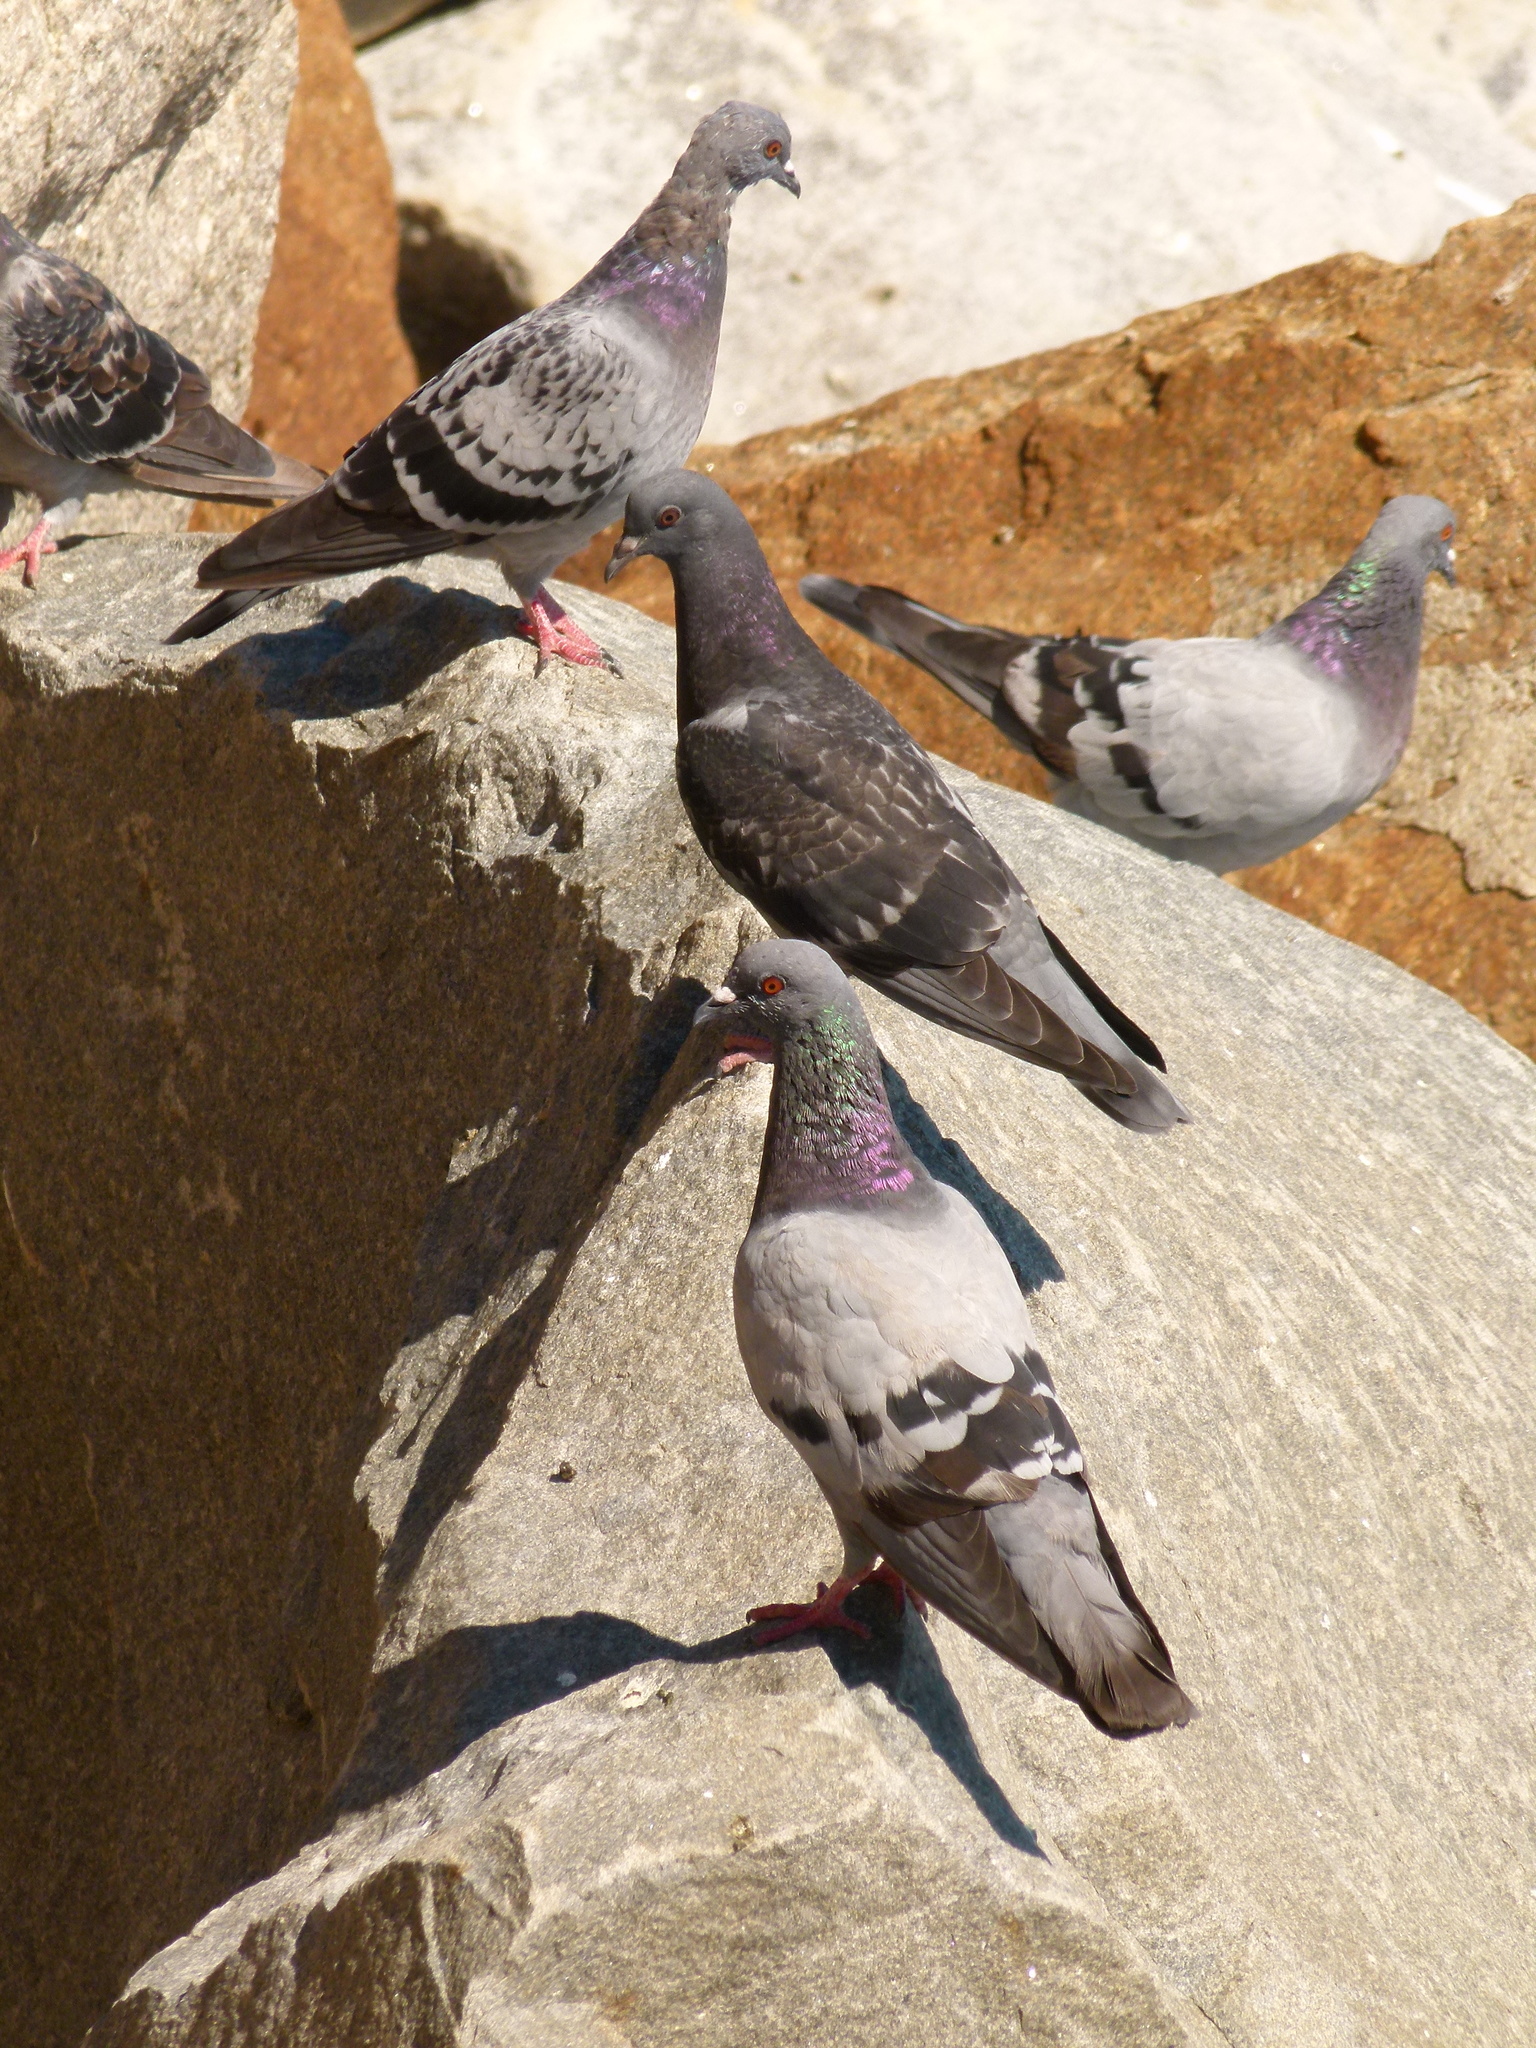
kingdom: Animalia
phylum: Chordata
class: Aves
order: Columbiformes
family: Columbidae
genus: Columba
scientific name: Columba livia
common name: Rock pigeon
